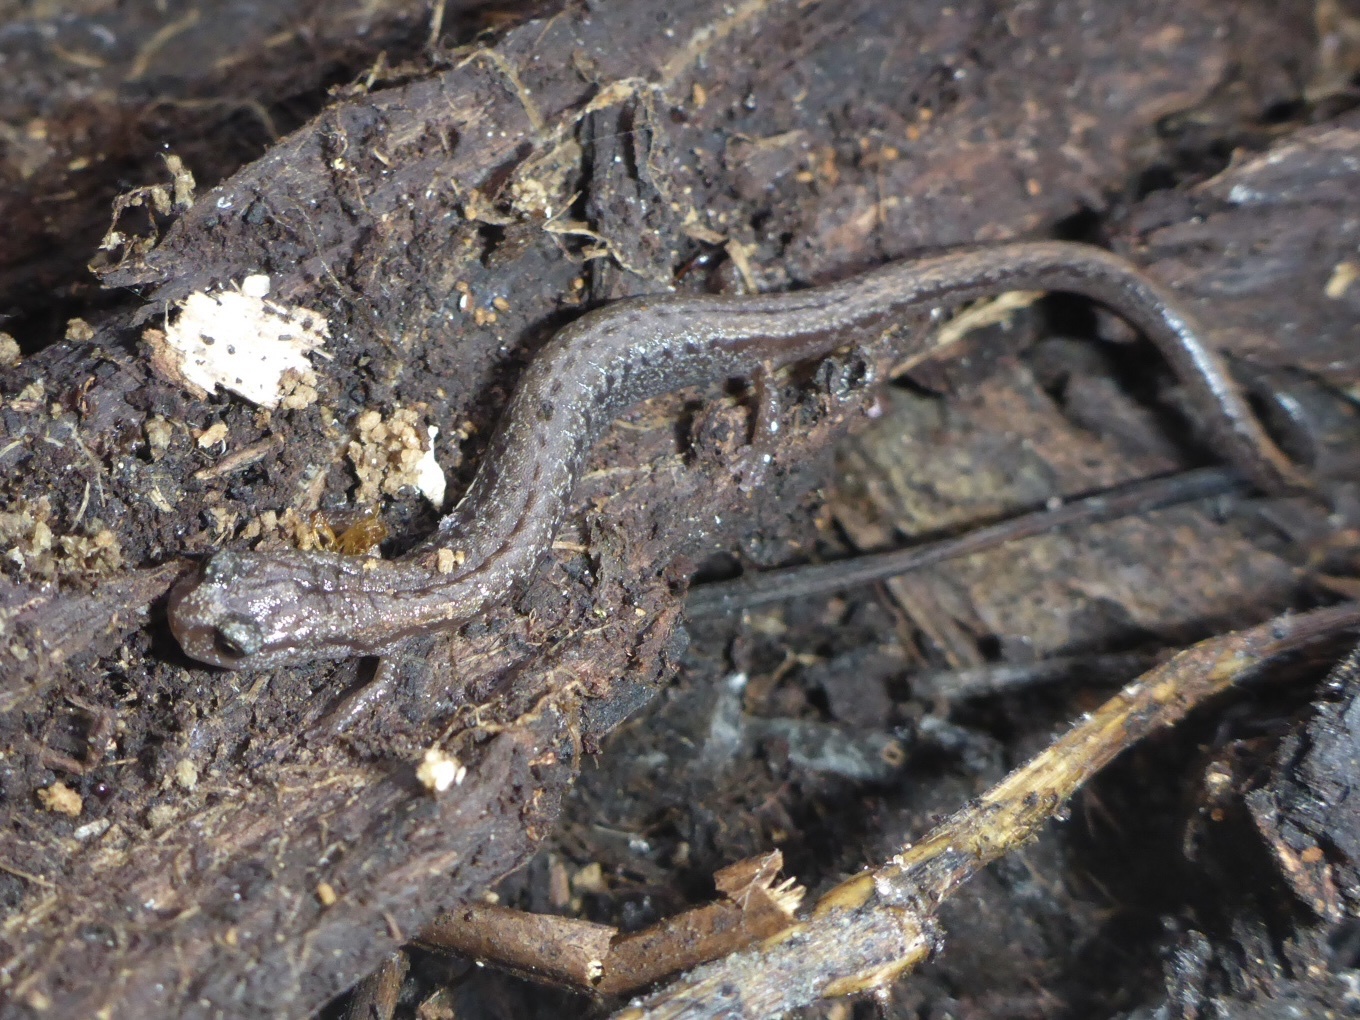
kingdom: Animalia
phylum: Chordata
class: Amphibia
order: Caudata
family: Plethodontidae
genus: Batrachoseps
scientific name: Batrachoseps attenuatus
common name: California slender salamander
